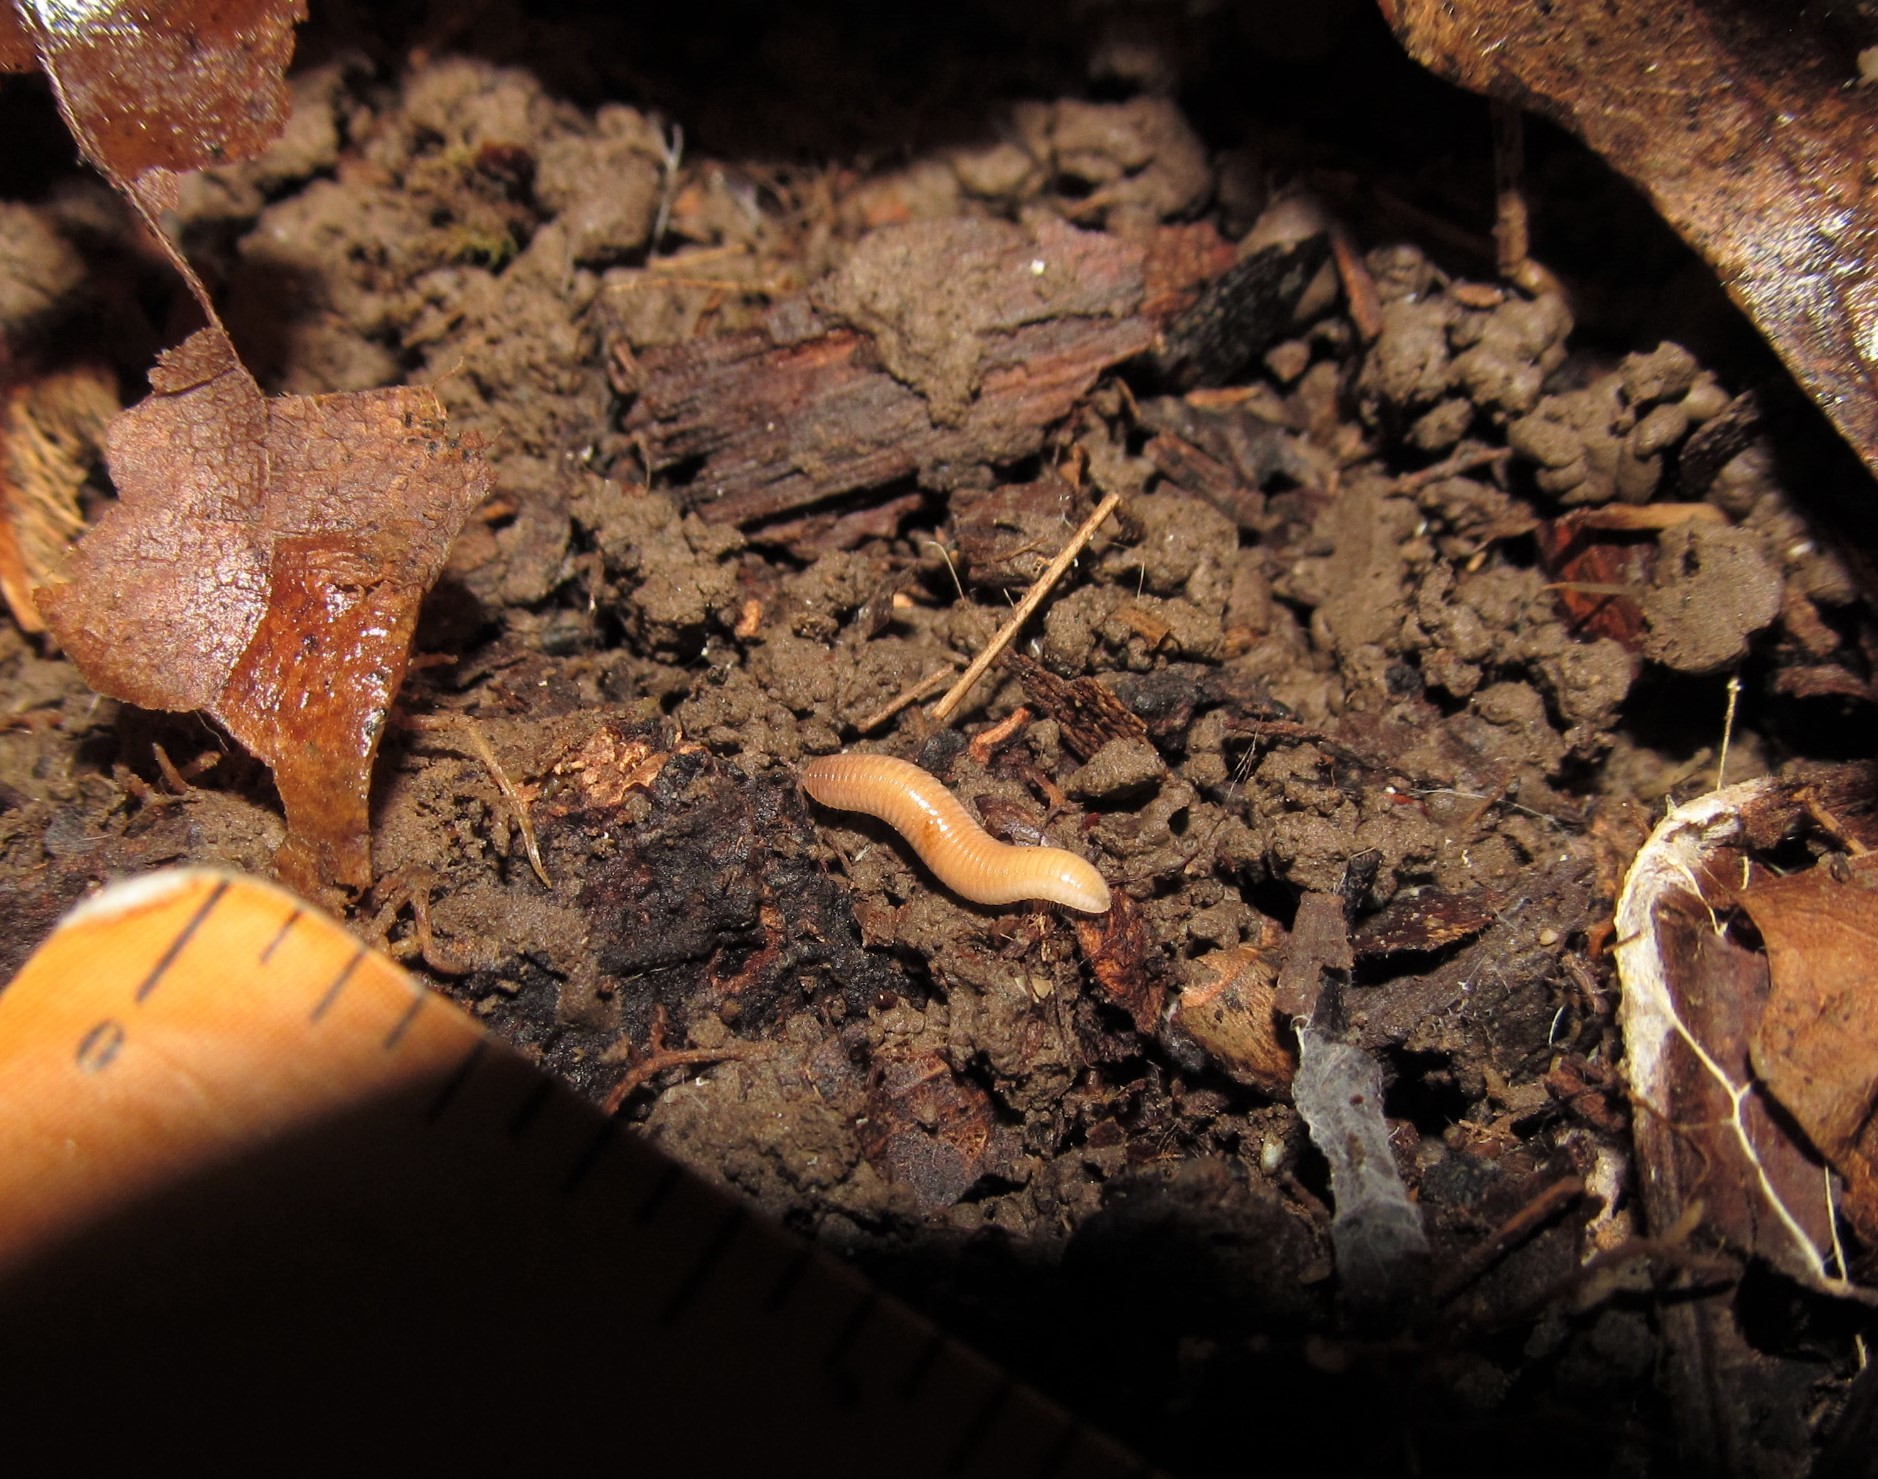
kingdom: Animalia
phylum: Arthropoda
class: Diplopoda
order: Polyzoniida
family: Polyzoniidae
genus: Petaserpes
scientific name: Petaserpes cryptocephalus
